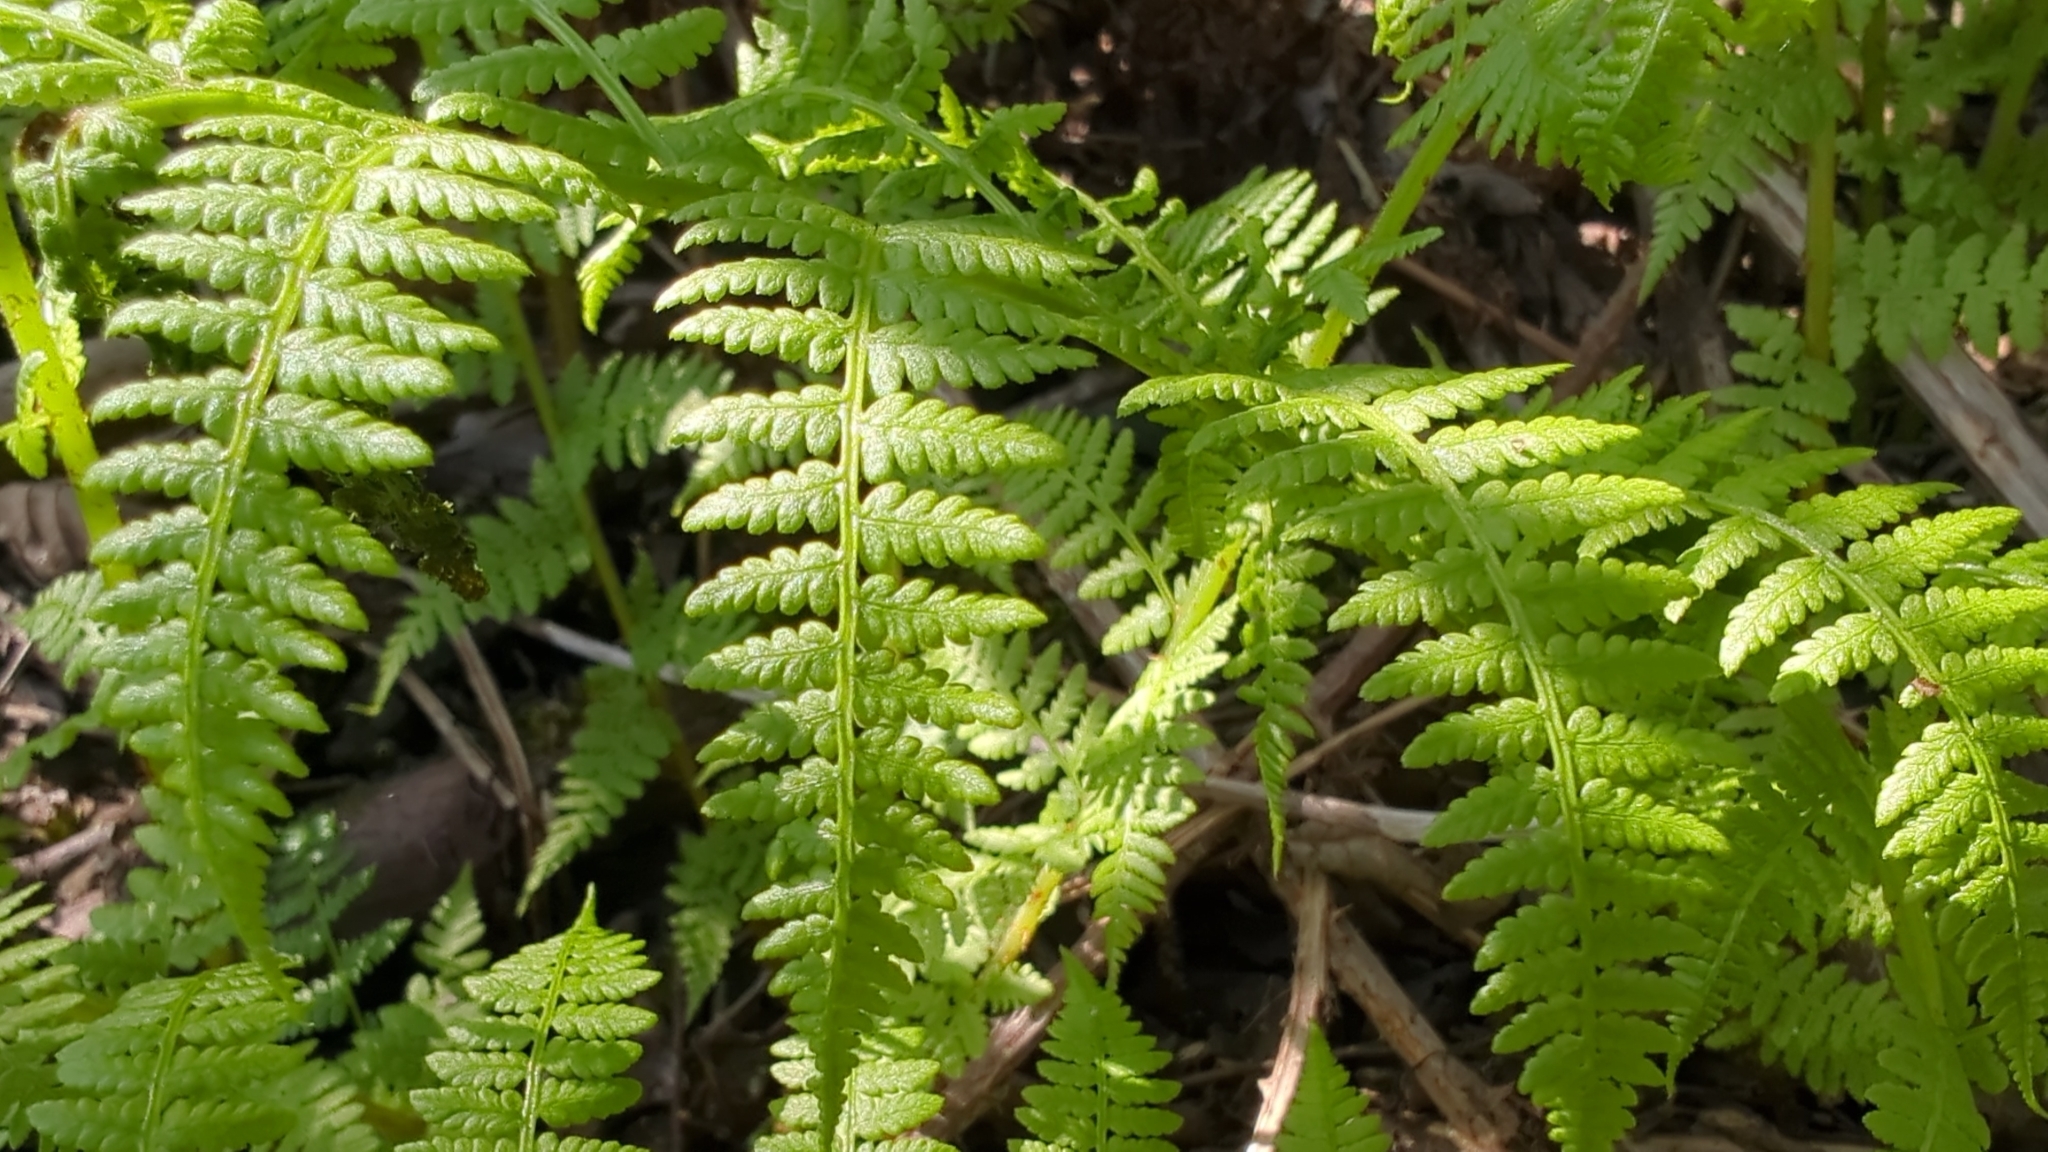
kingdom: Plantae
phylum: Tracheophyta
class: Polypodiopsida
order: Polypodiales
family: Athyriaceae
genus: Athyrium
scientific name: Athyrium cyclosorum
